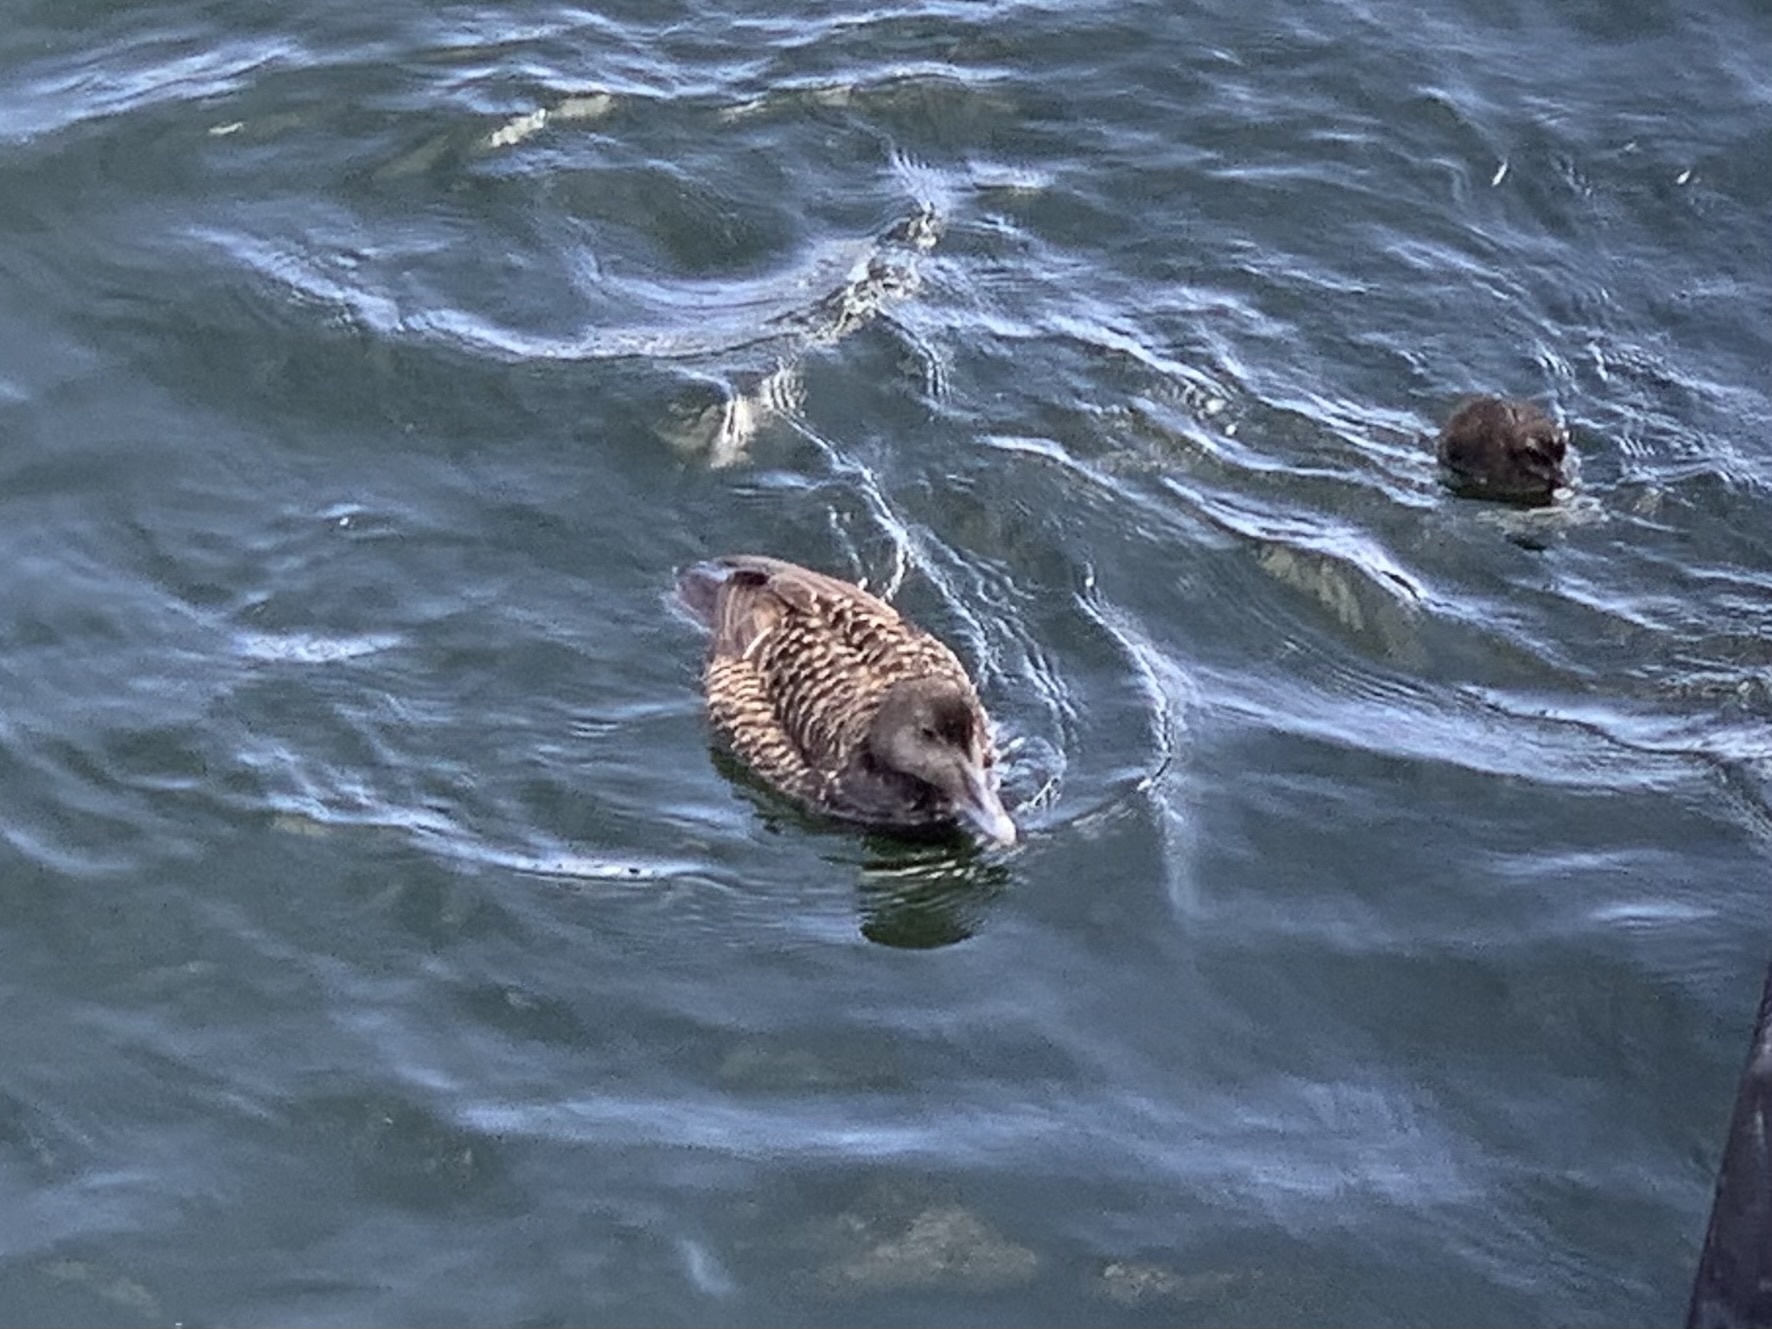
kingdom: Animalia
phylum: Chordata
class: Aves
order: Anseriformes
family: Anatidae
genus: Somateria
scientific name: Somateria mollissima
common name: Common eider
